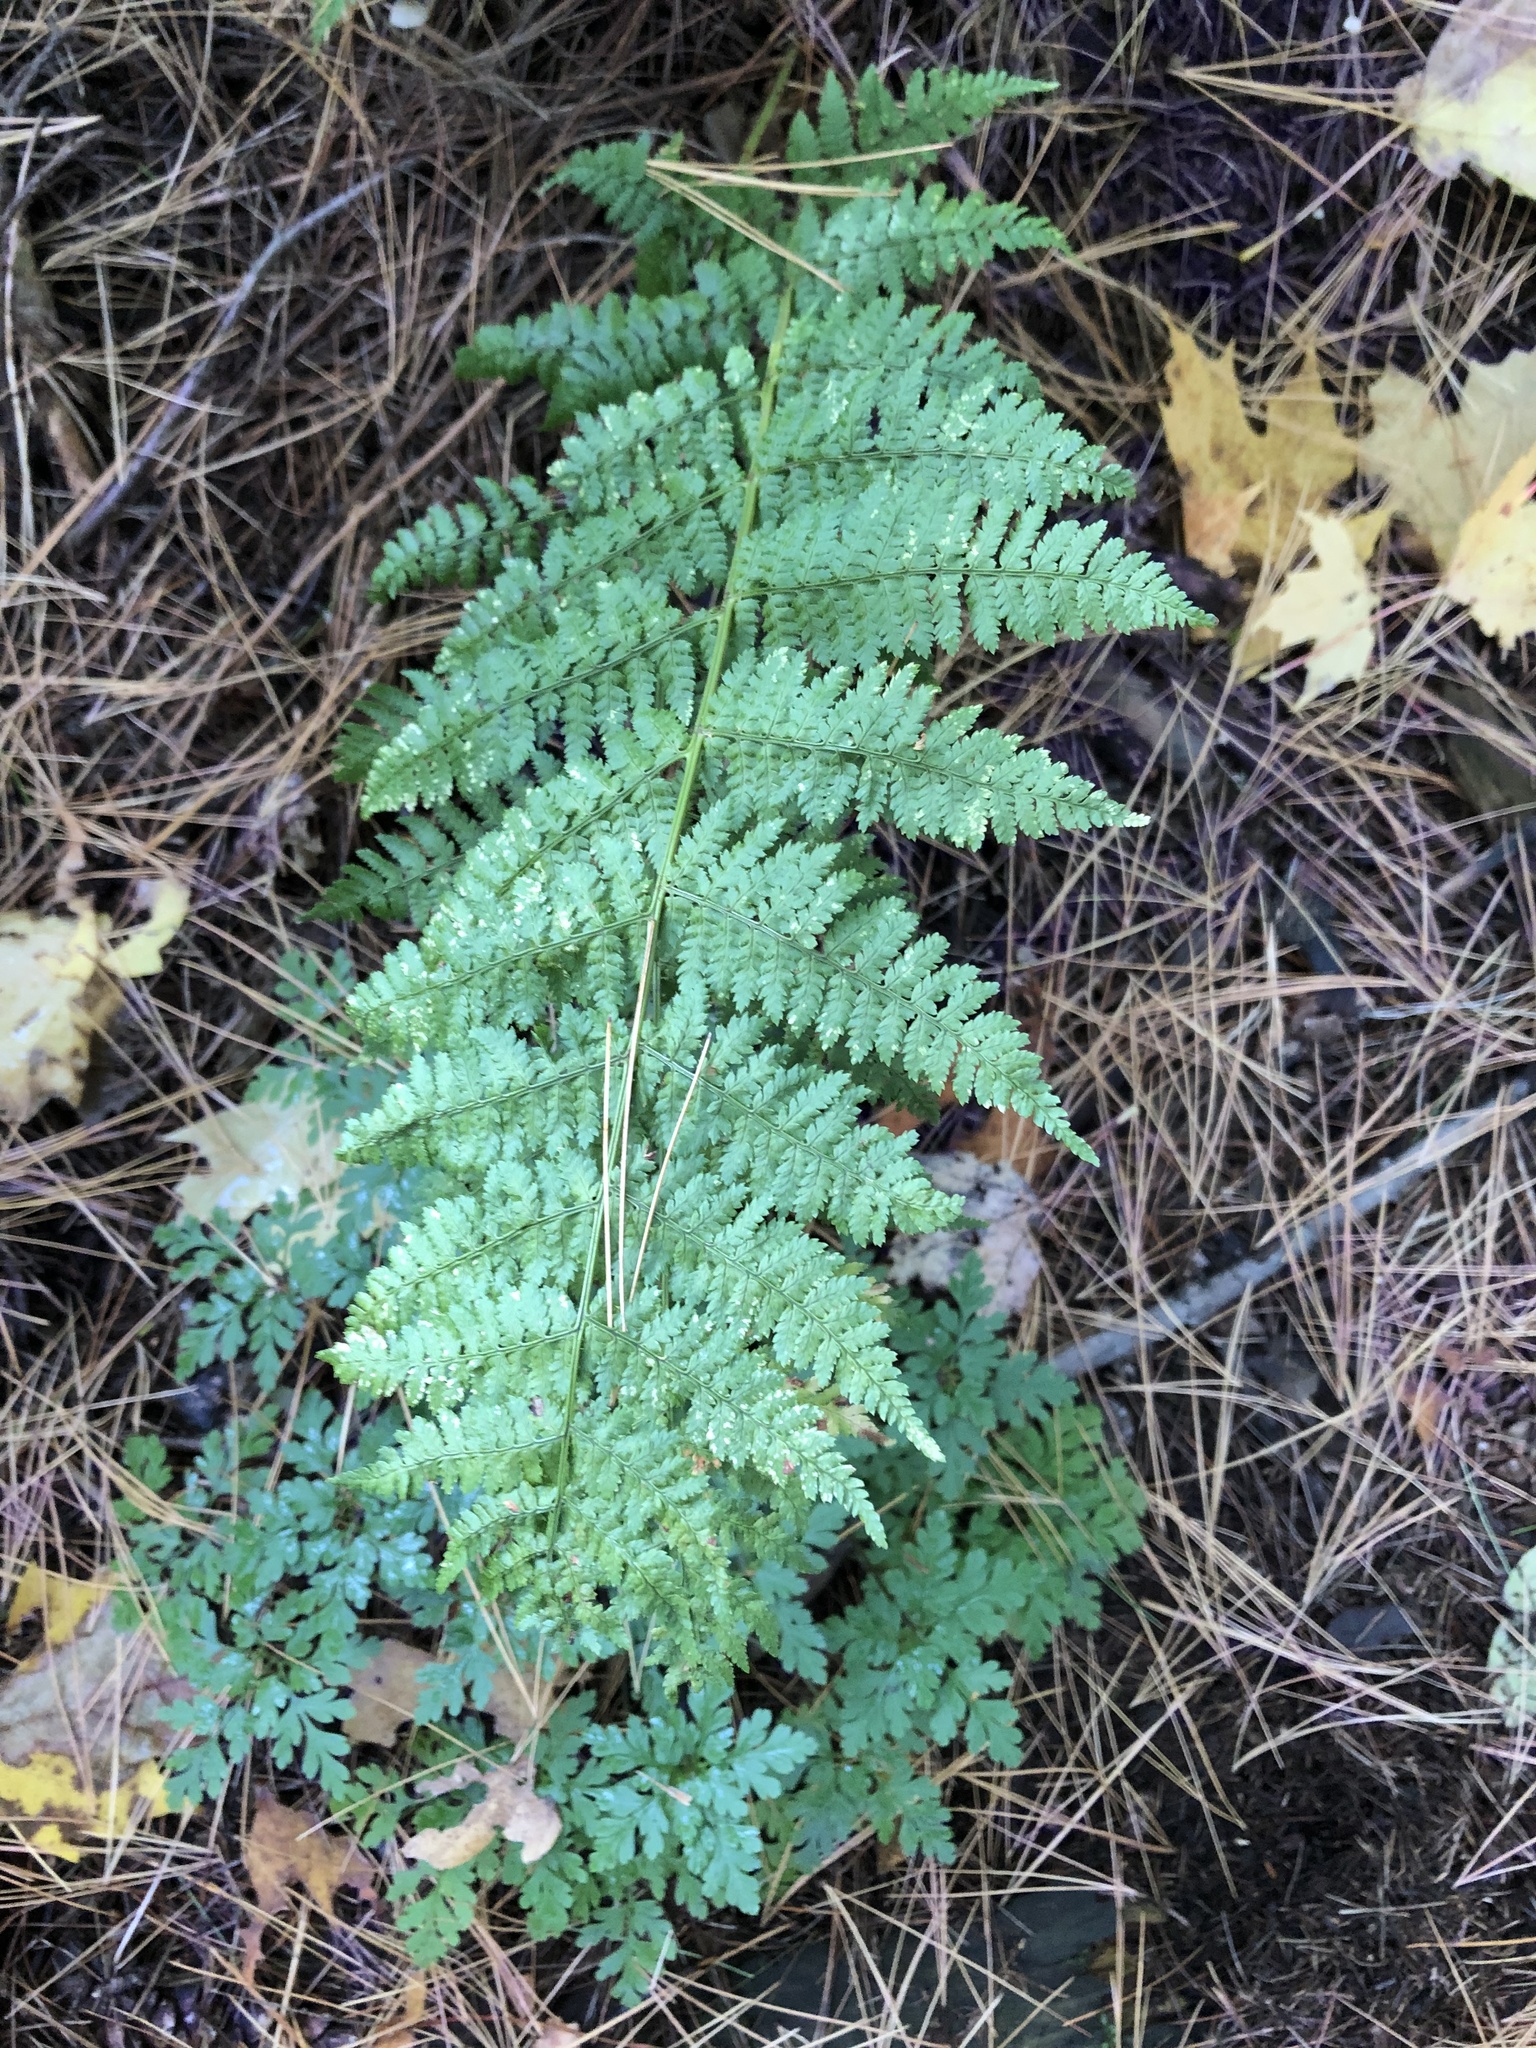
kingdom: Plantae
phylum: Tracheophyta
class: Polypodiopsida
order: Polypodiales
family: Dryopteridaceae
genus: Dryopteris
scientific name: Dryopteris intermedia
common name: Evergreen wood fern
